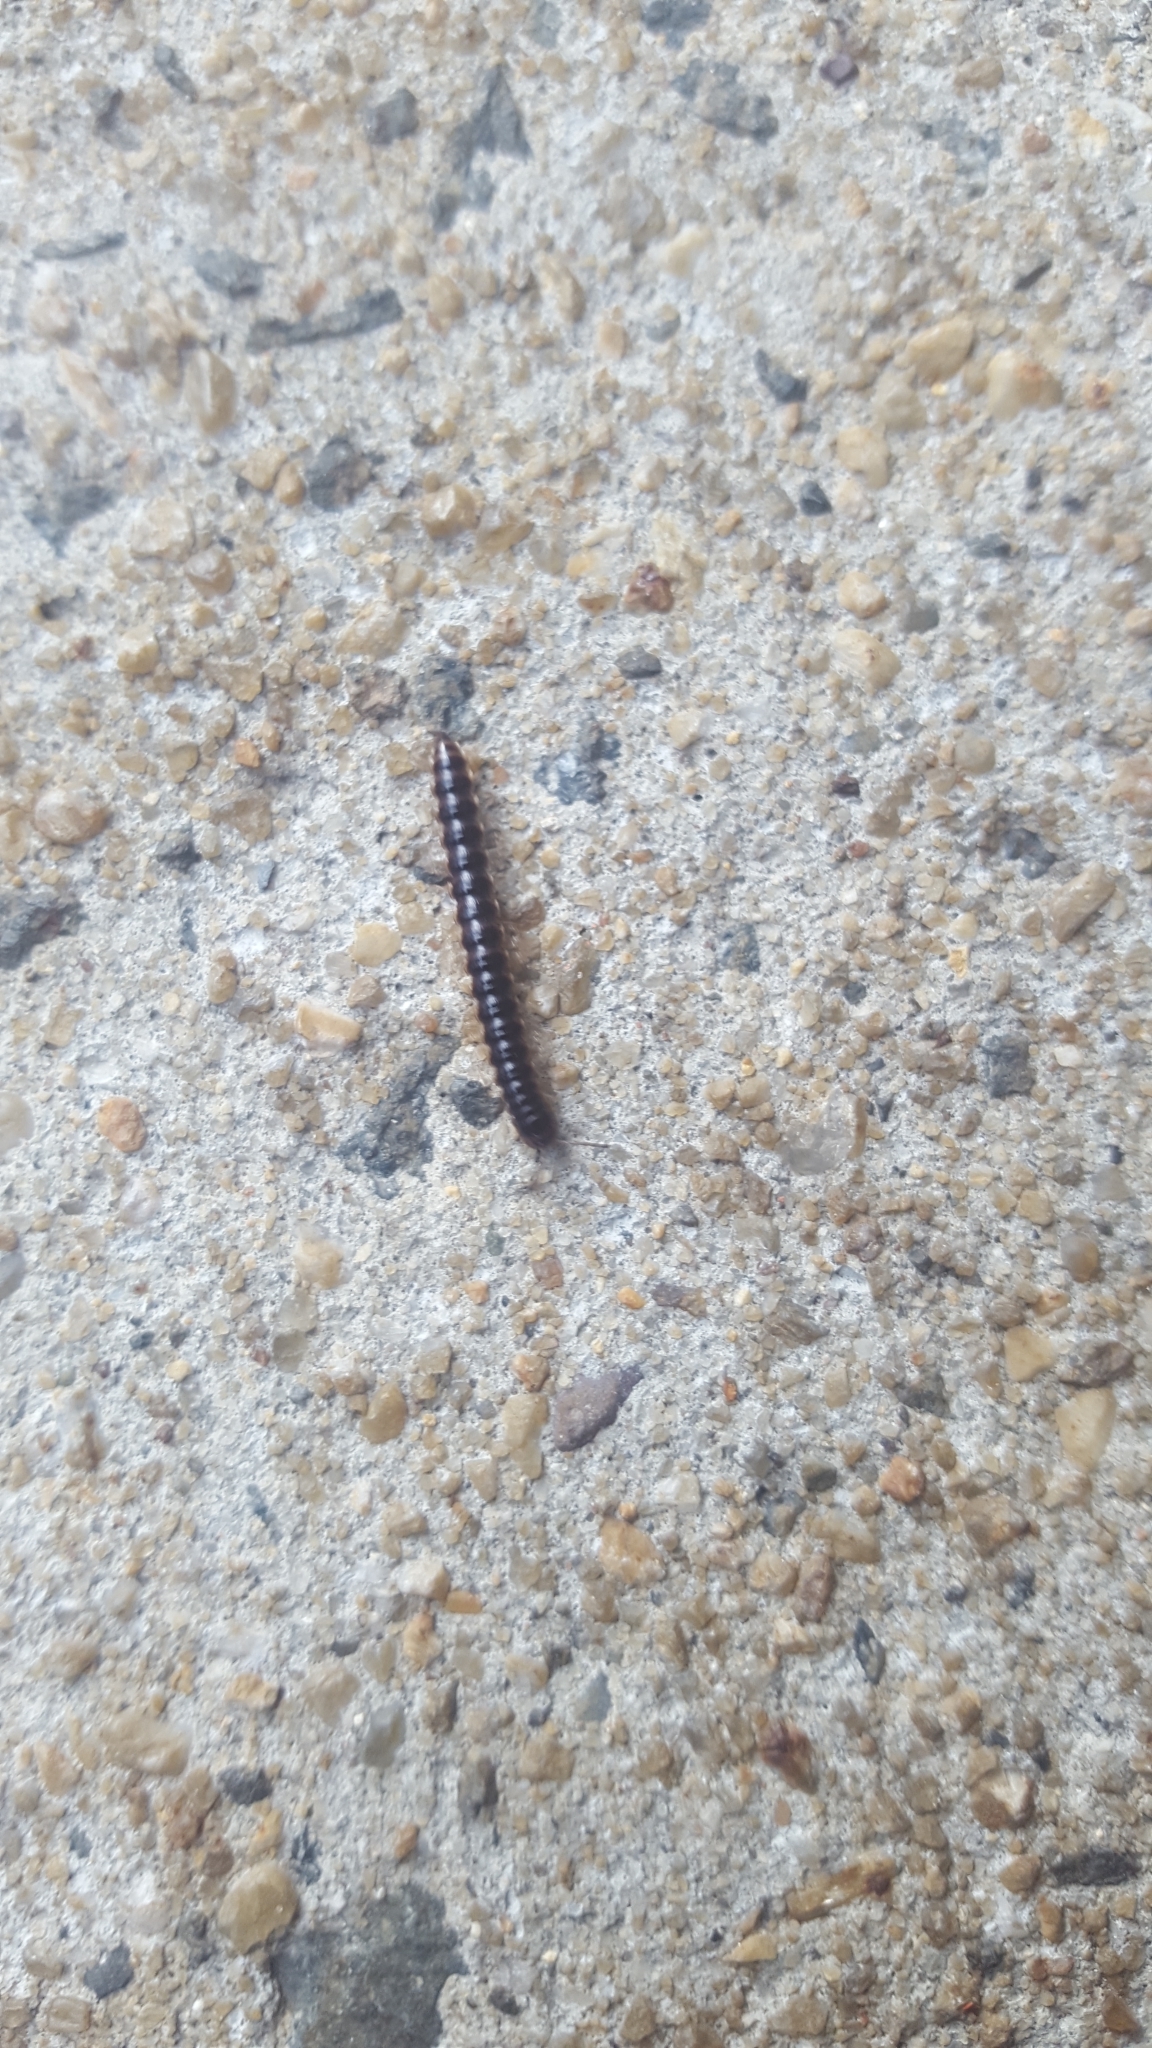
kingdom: Animalia
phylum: Arthropoda
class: Diplopoda
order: Polydesmida
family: Paradoxosomatidae
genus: Oxidus
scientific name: Oxidus gracilis
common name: Greenhouse millipede
